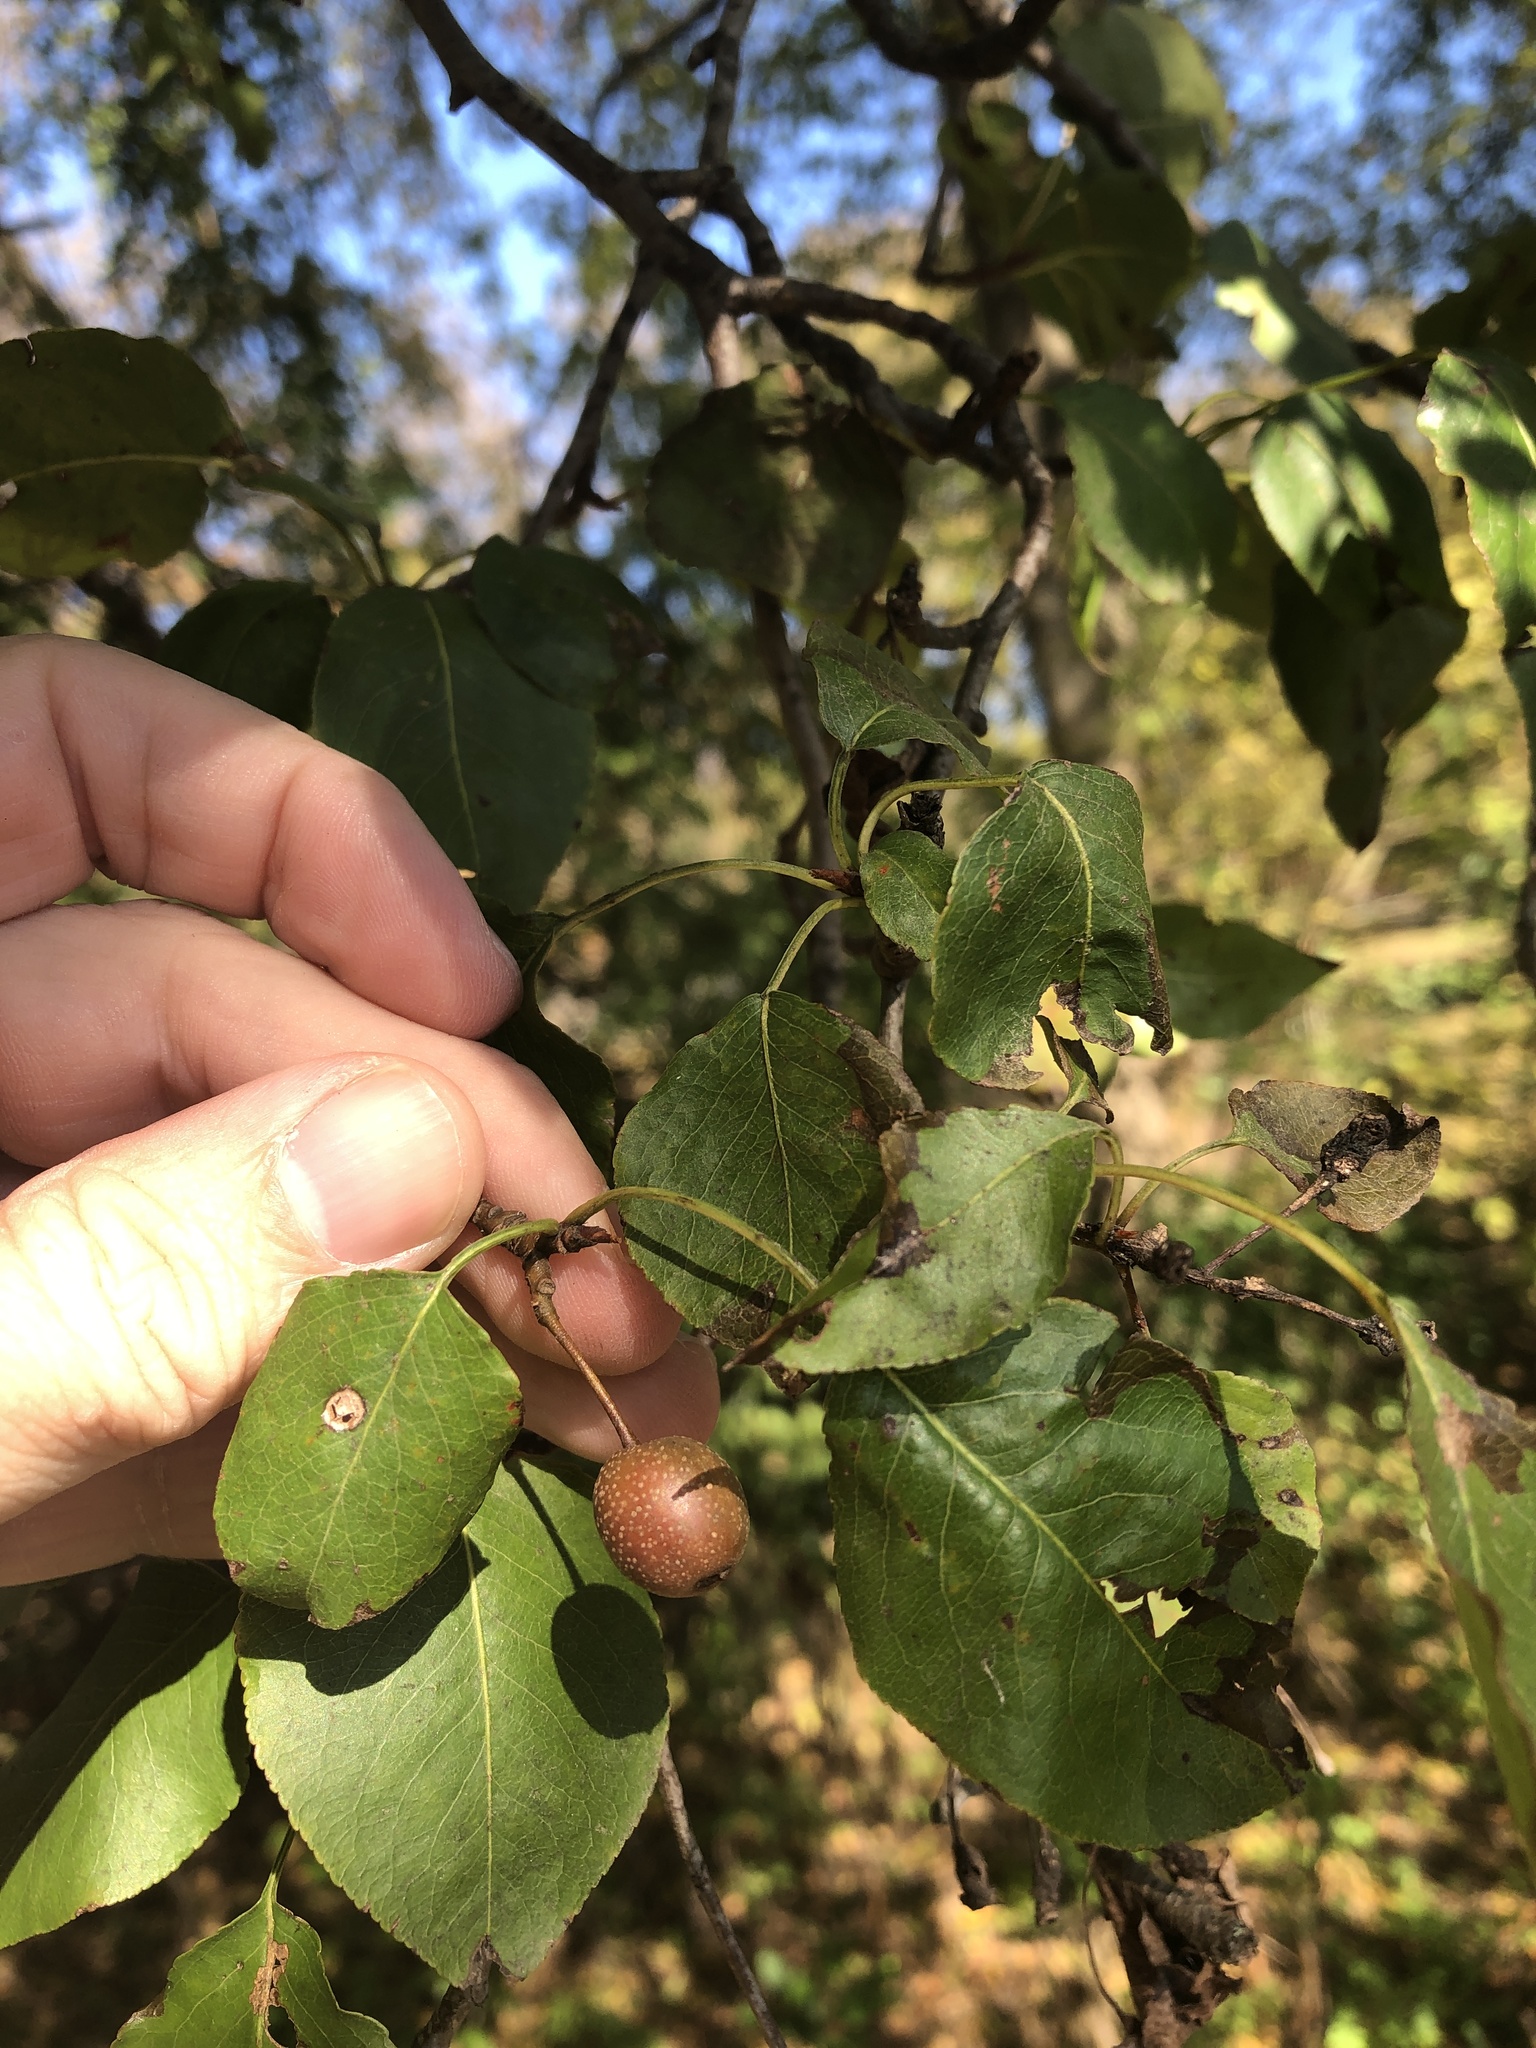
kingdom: Plantae
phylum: Tracheophyta
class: Magnoliopsida
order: Rosales
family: Rosaceae
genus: Pyrus
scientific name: Pyrus calleryana
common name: Callery pear
